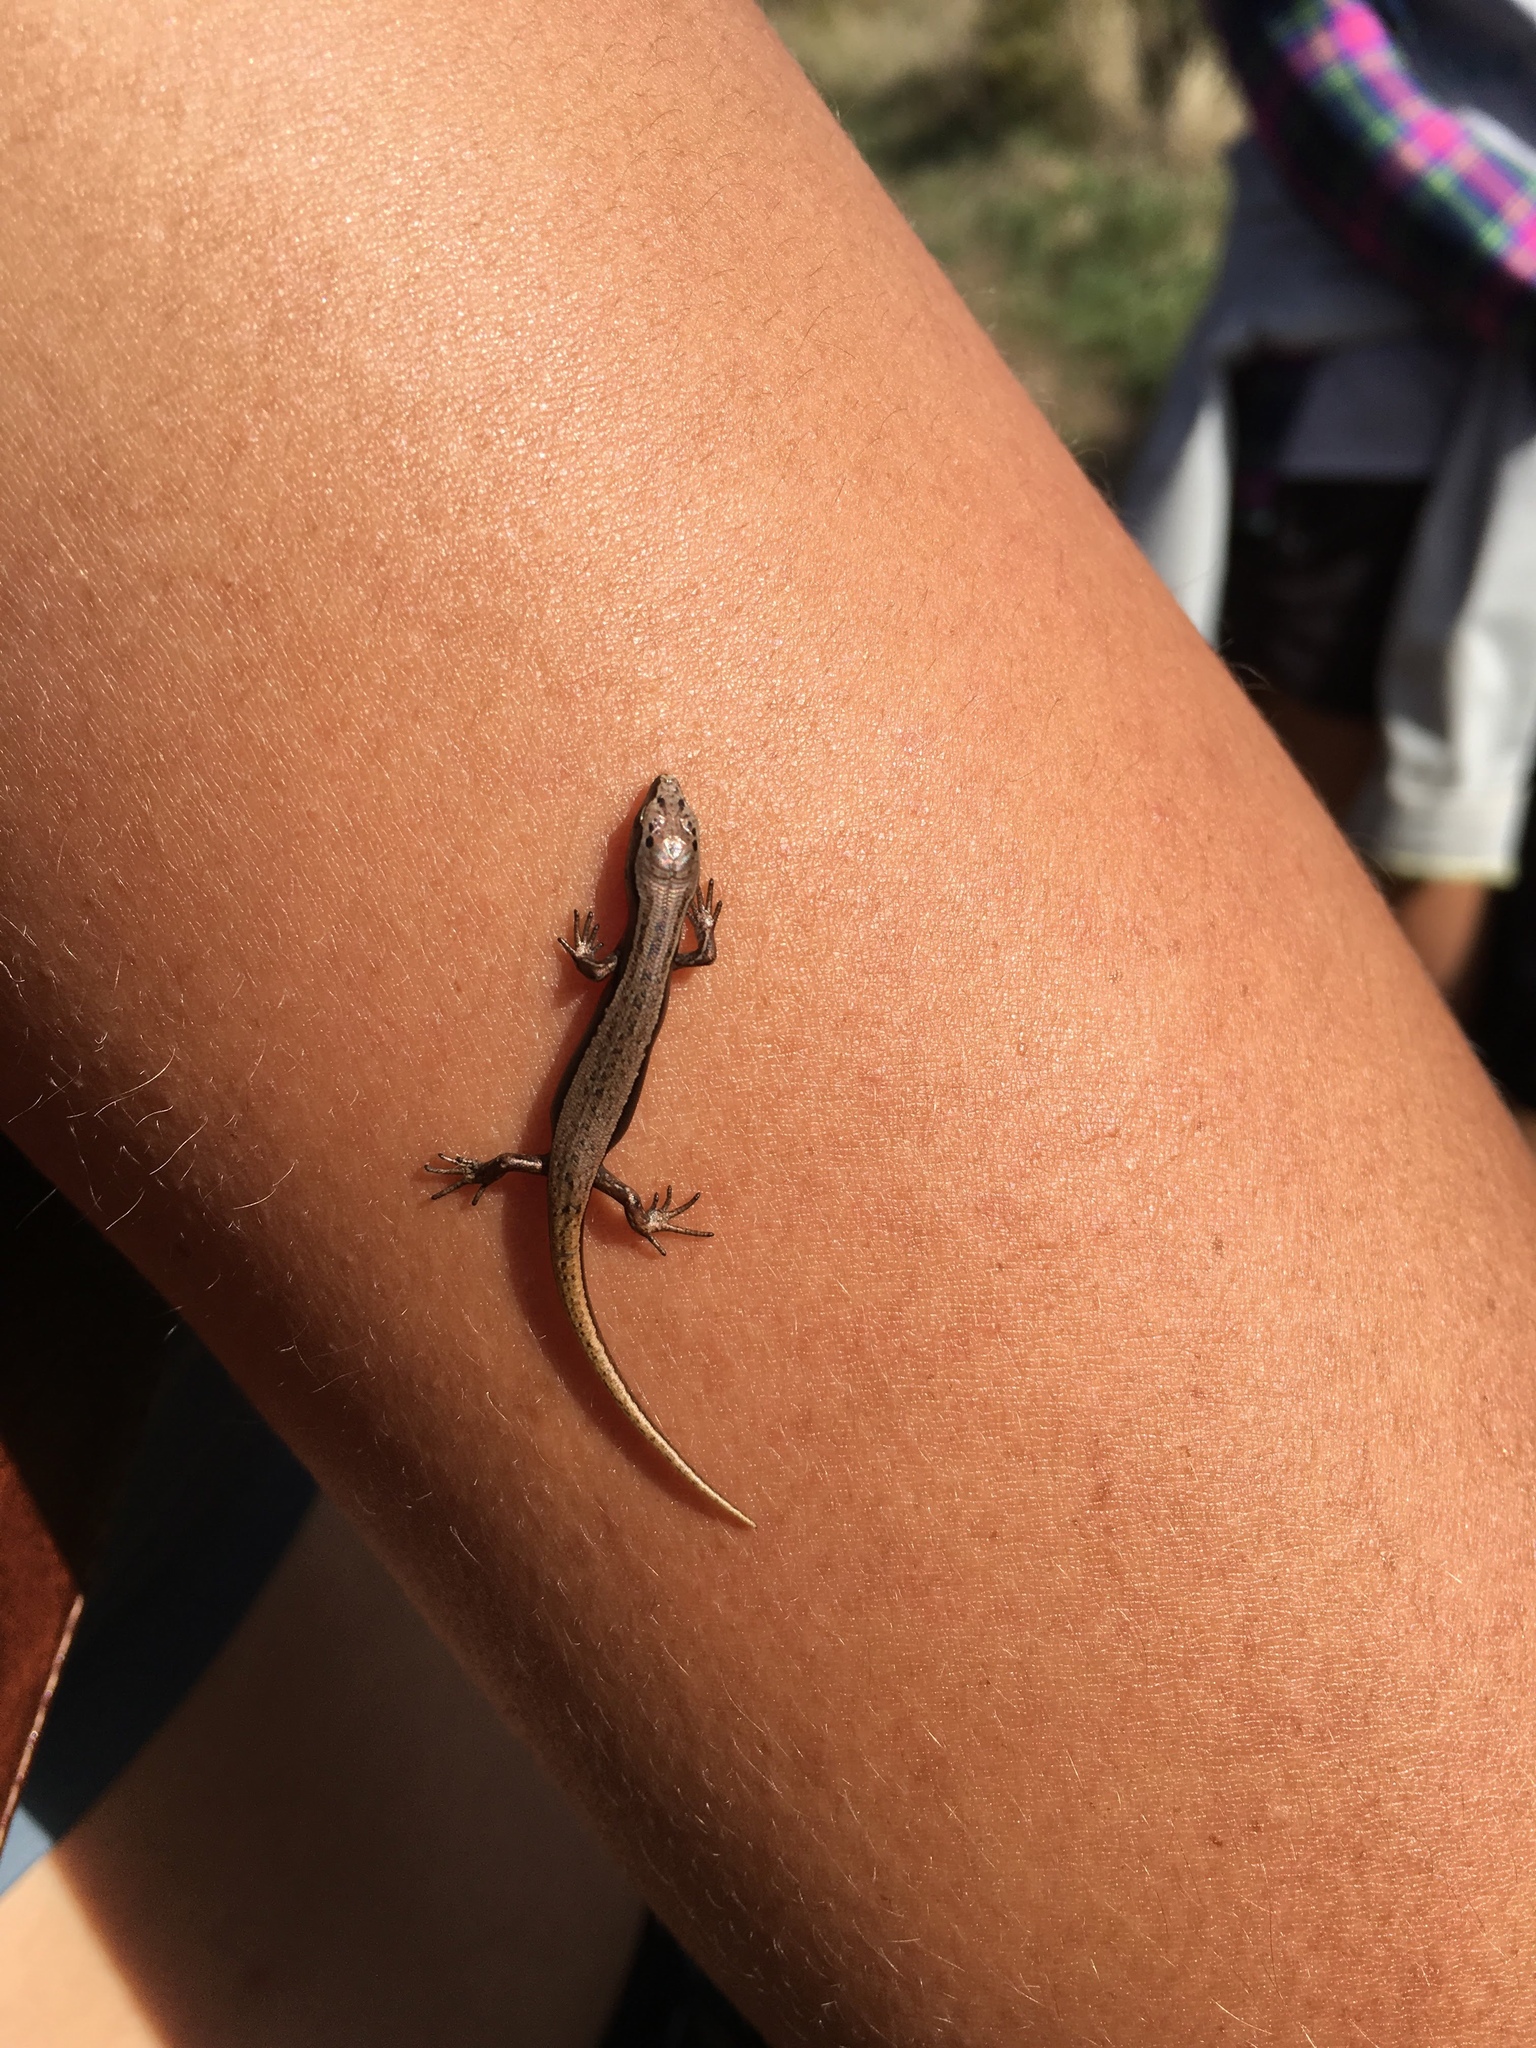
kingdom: Animalia
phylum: Chordata
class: Squamata
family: Scincidae
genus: Oligosoma
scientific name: Oligosoma zelandicum
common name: Brown skink
